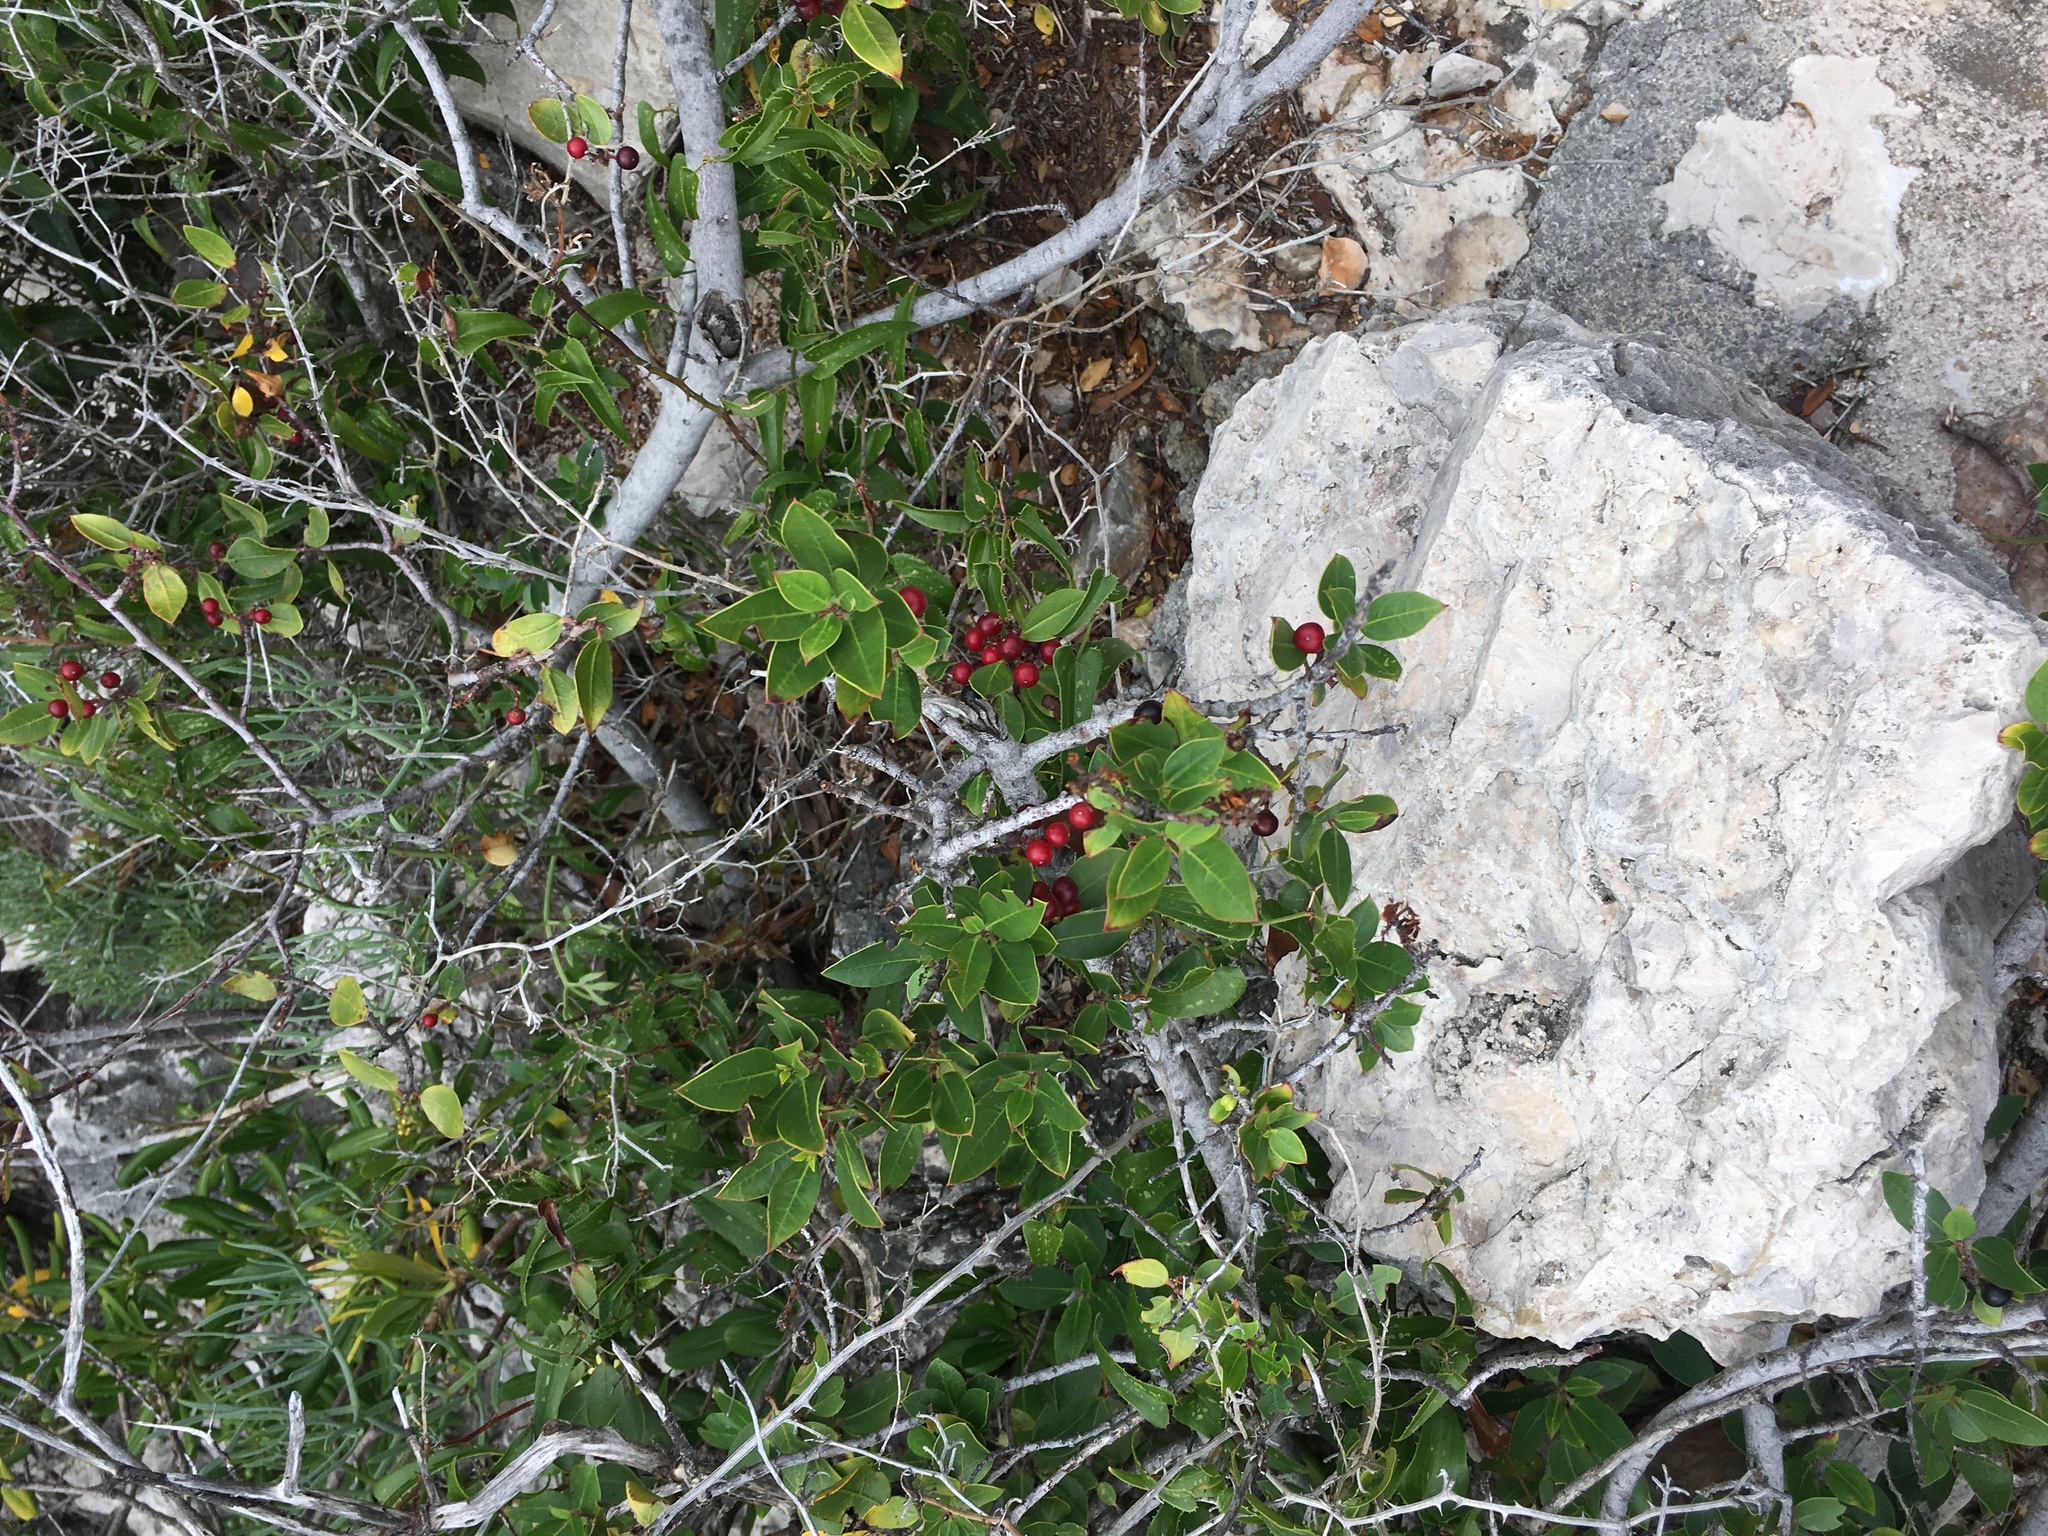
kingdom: Plantae
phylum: Tracheophyta
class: Magnoliopsida
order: Rosales
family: Rhamnaceae
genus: Rhamnus
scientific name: Rhamnus alaternus
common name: Mediterranean buckthorn
